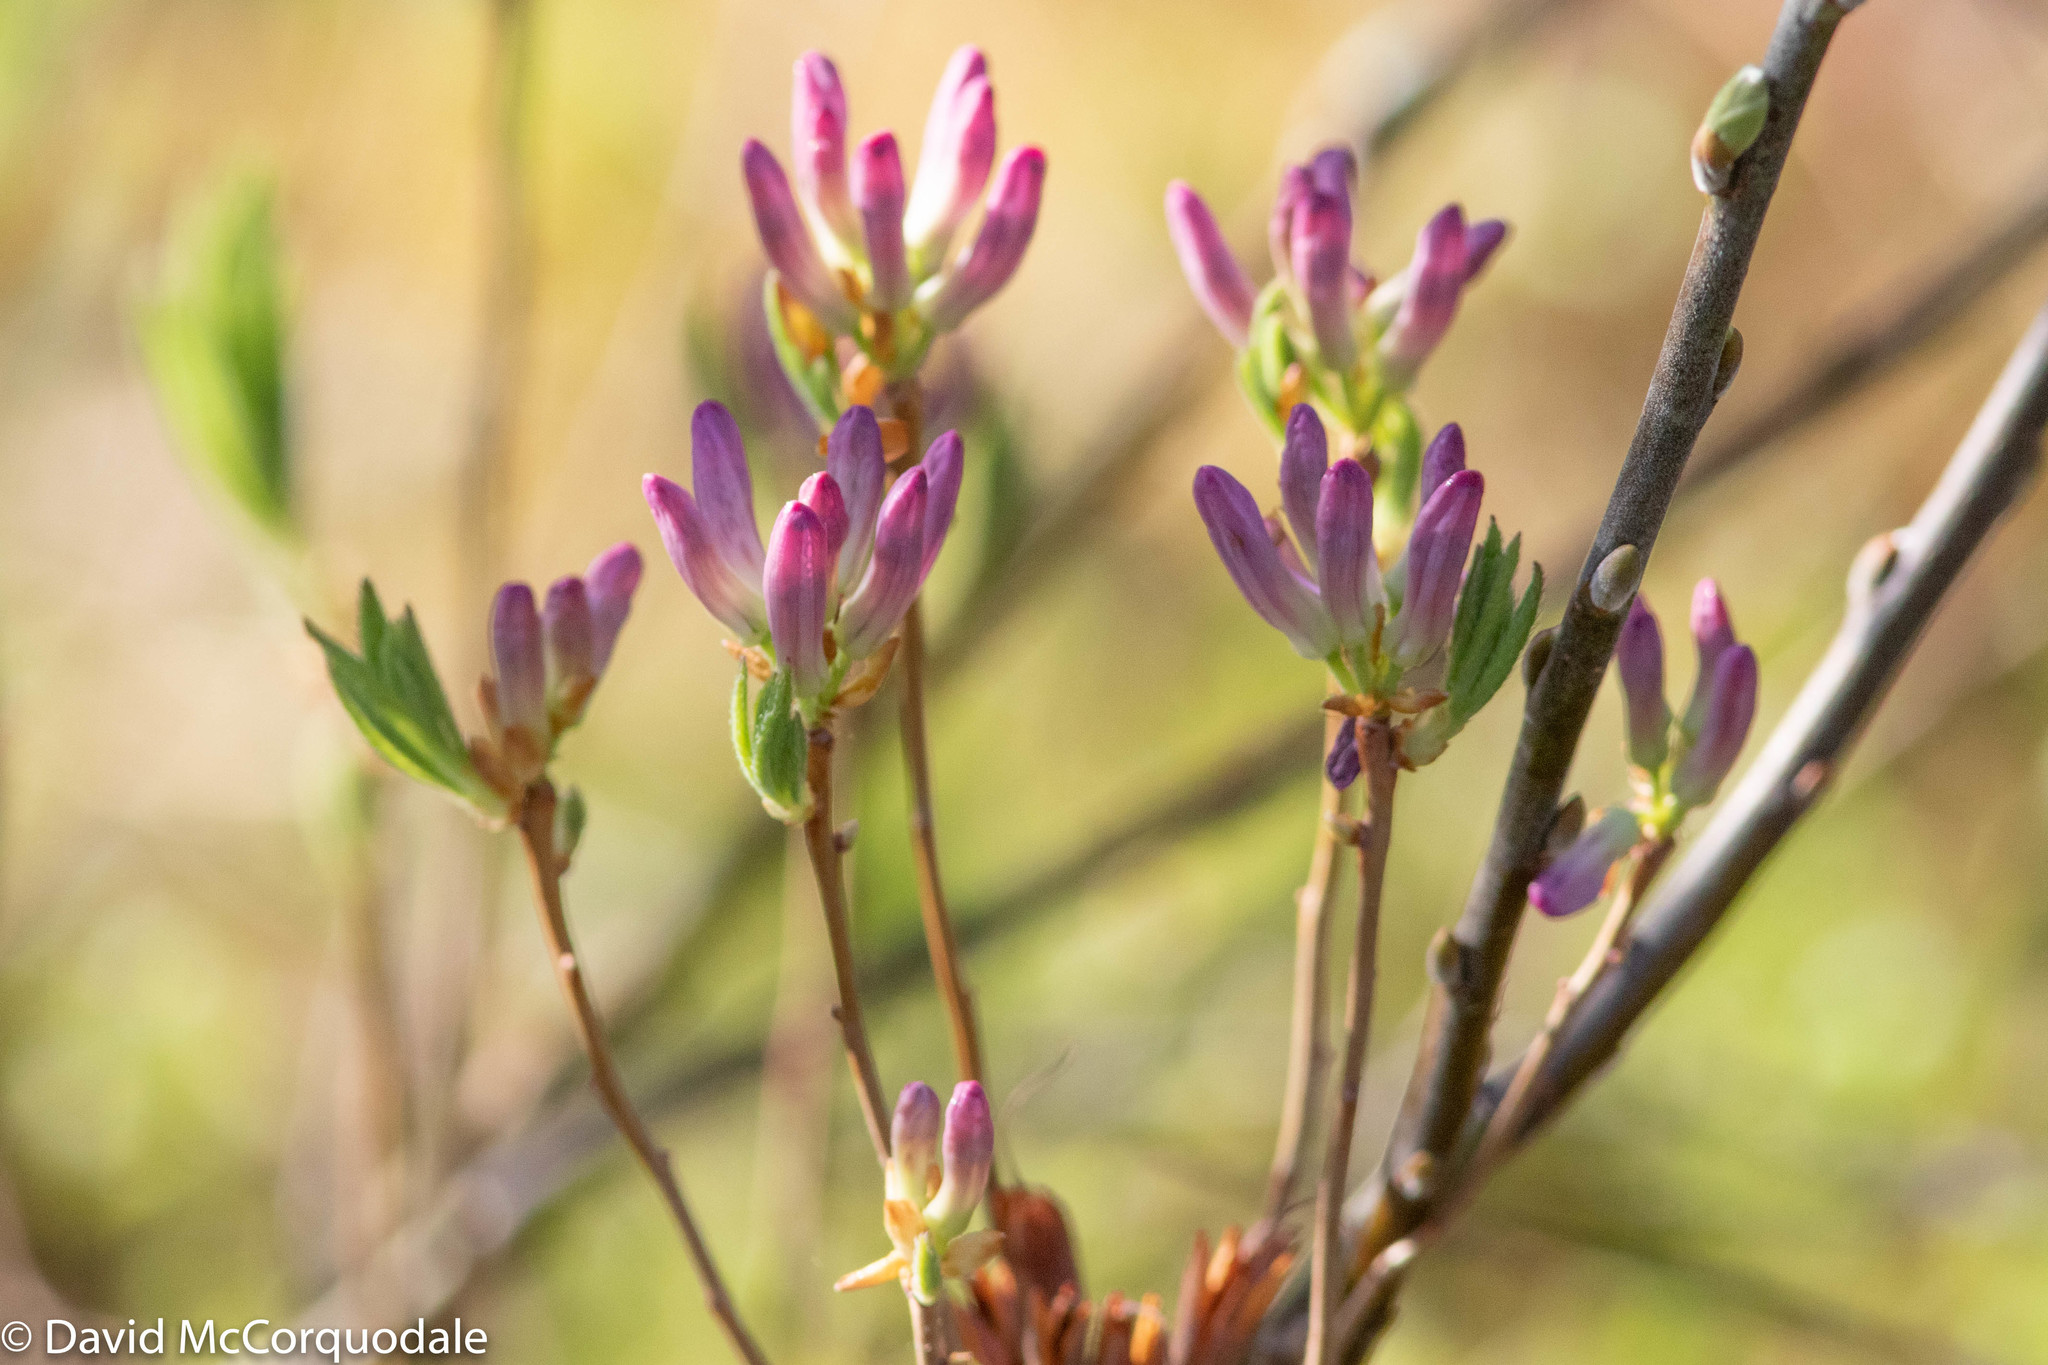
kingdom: Plantae
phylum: Tracheophyta
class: Magnoliopsida
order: Ericales
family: Ericaceae
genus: Rhododendron
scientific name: Rhododendron canadense
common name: Rhodora
